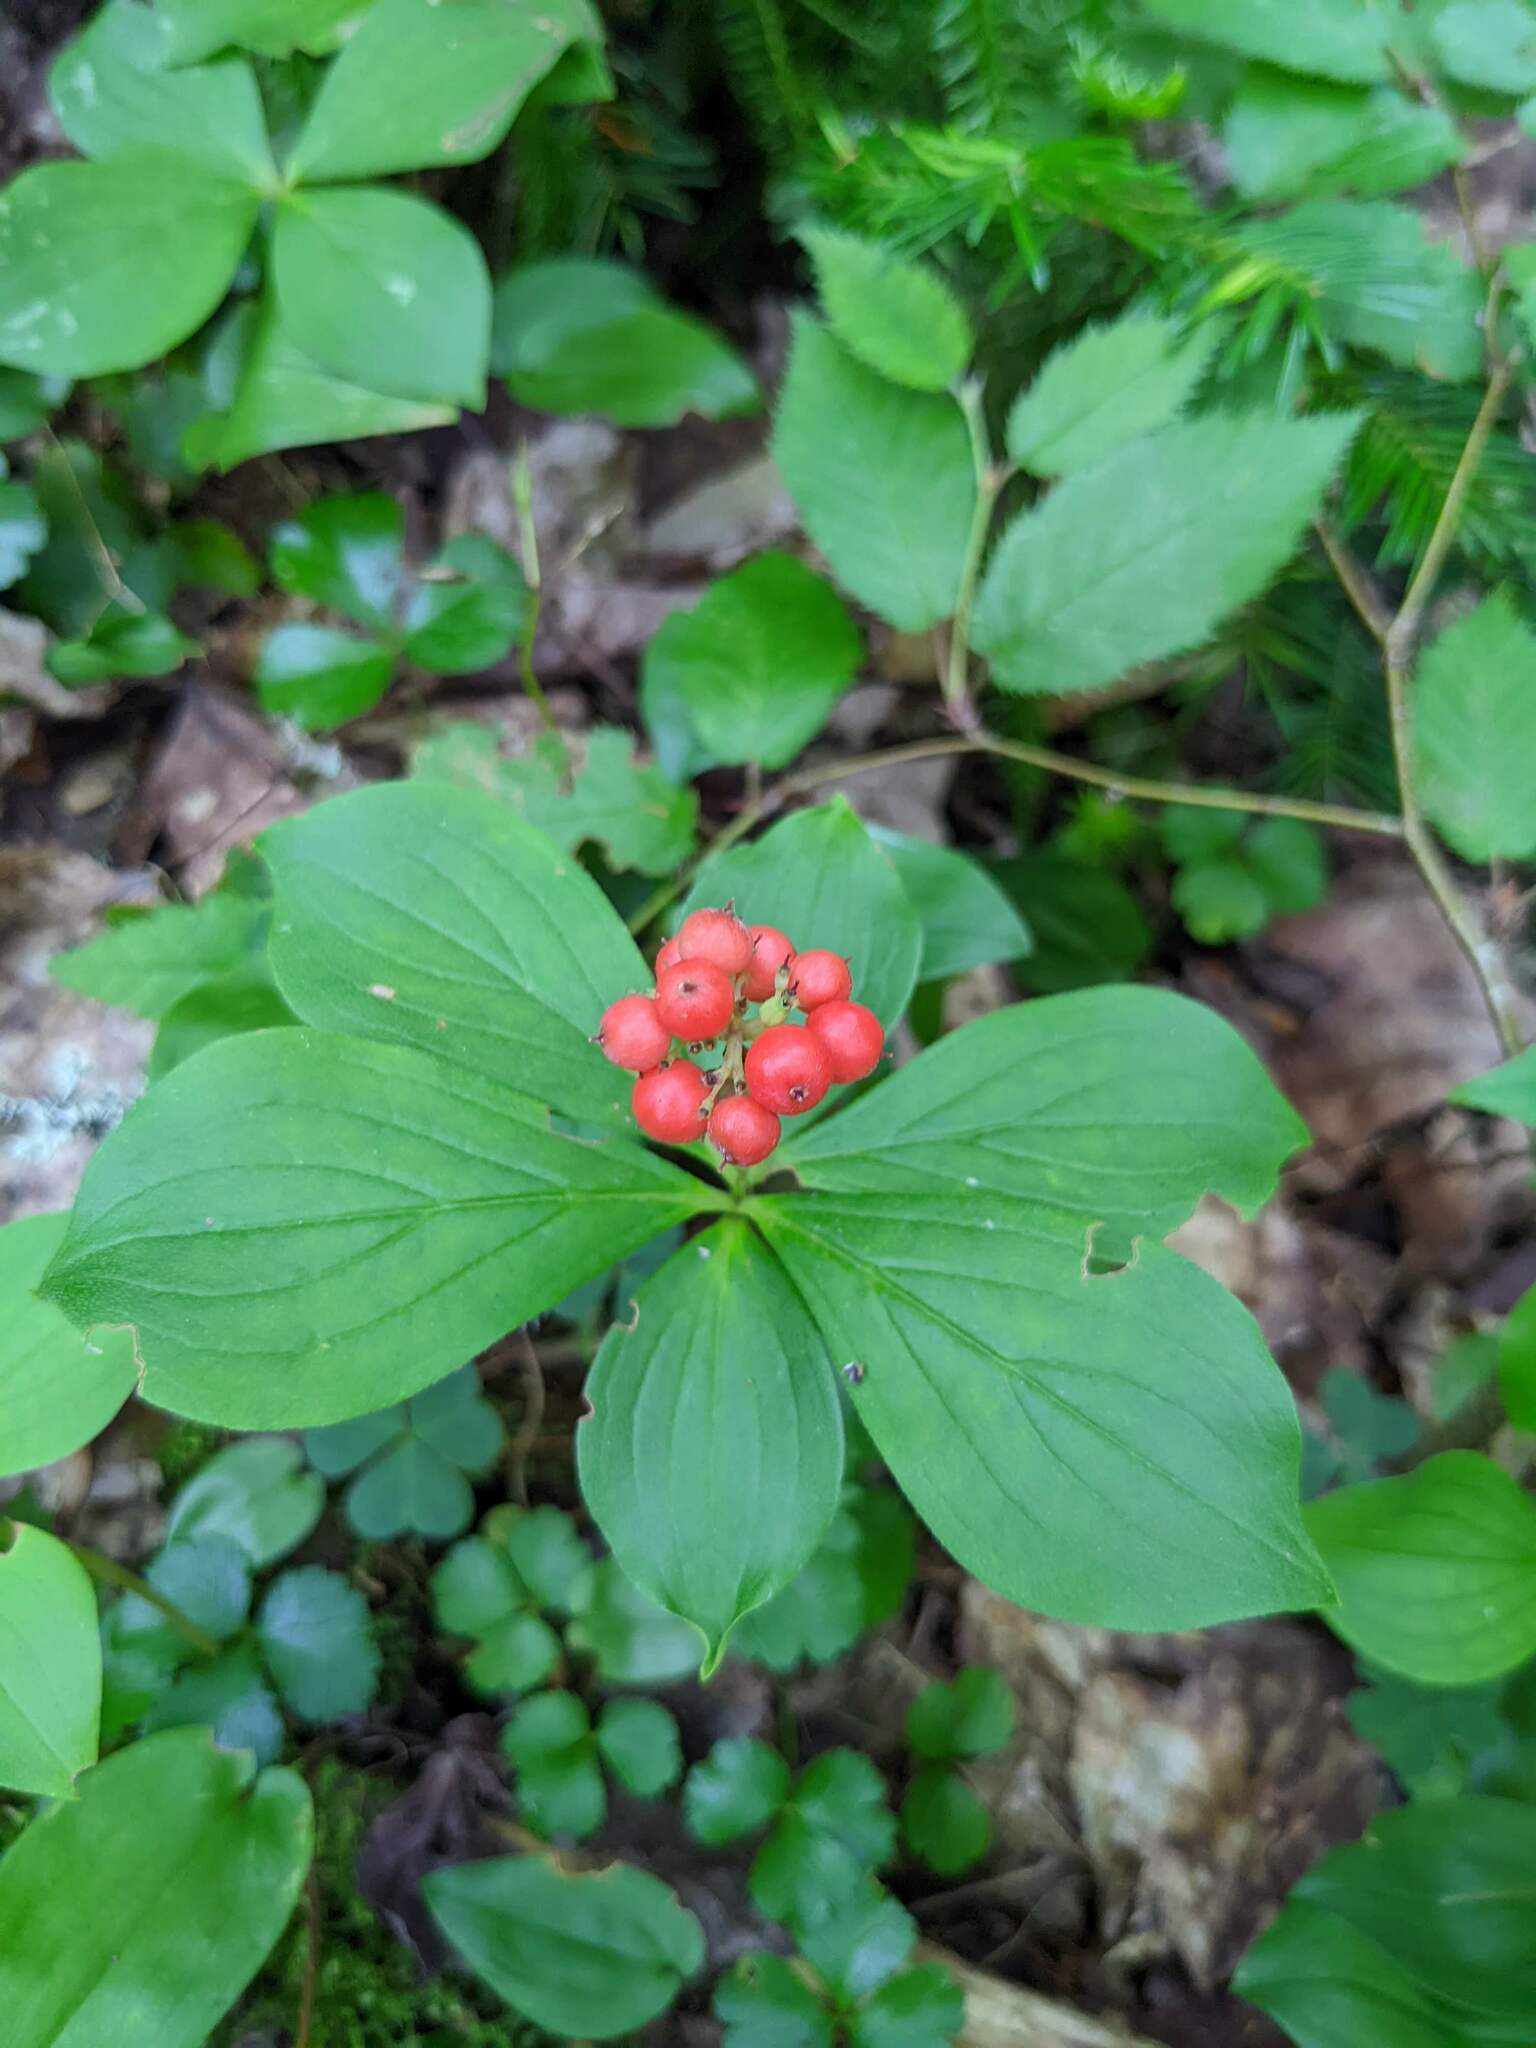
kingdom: Plantae
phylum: Tracheophyta
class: Magnoliopsida
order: Cornales
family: Cornaceae
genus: Cornus
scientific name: Cornus canadensis
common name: Creeping dogwood
